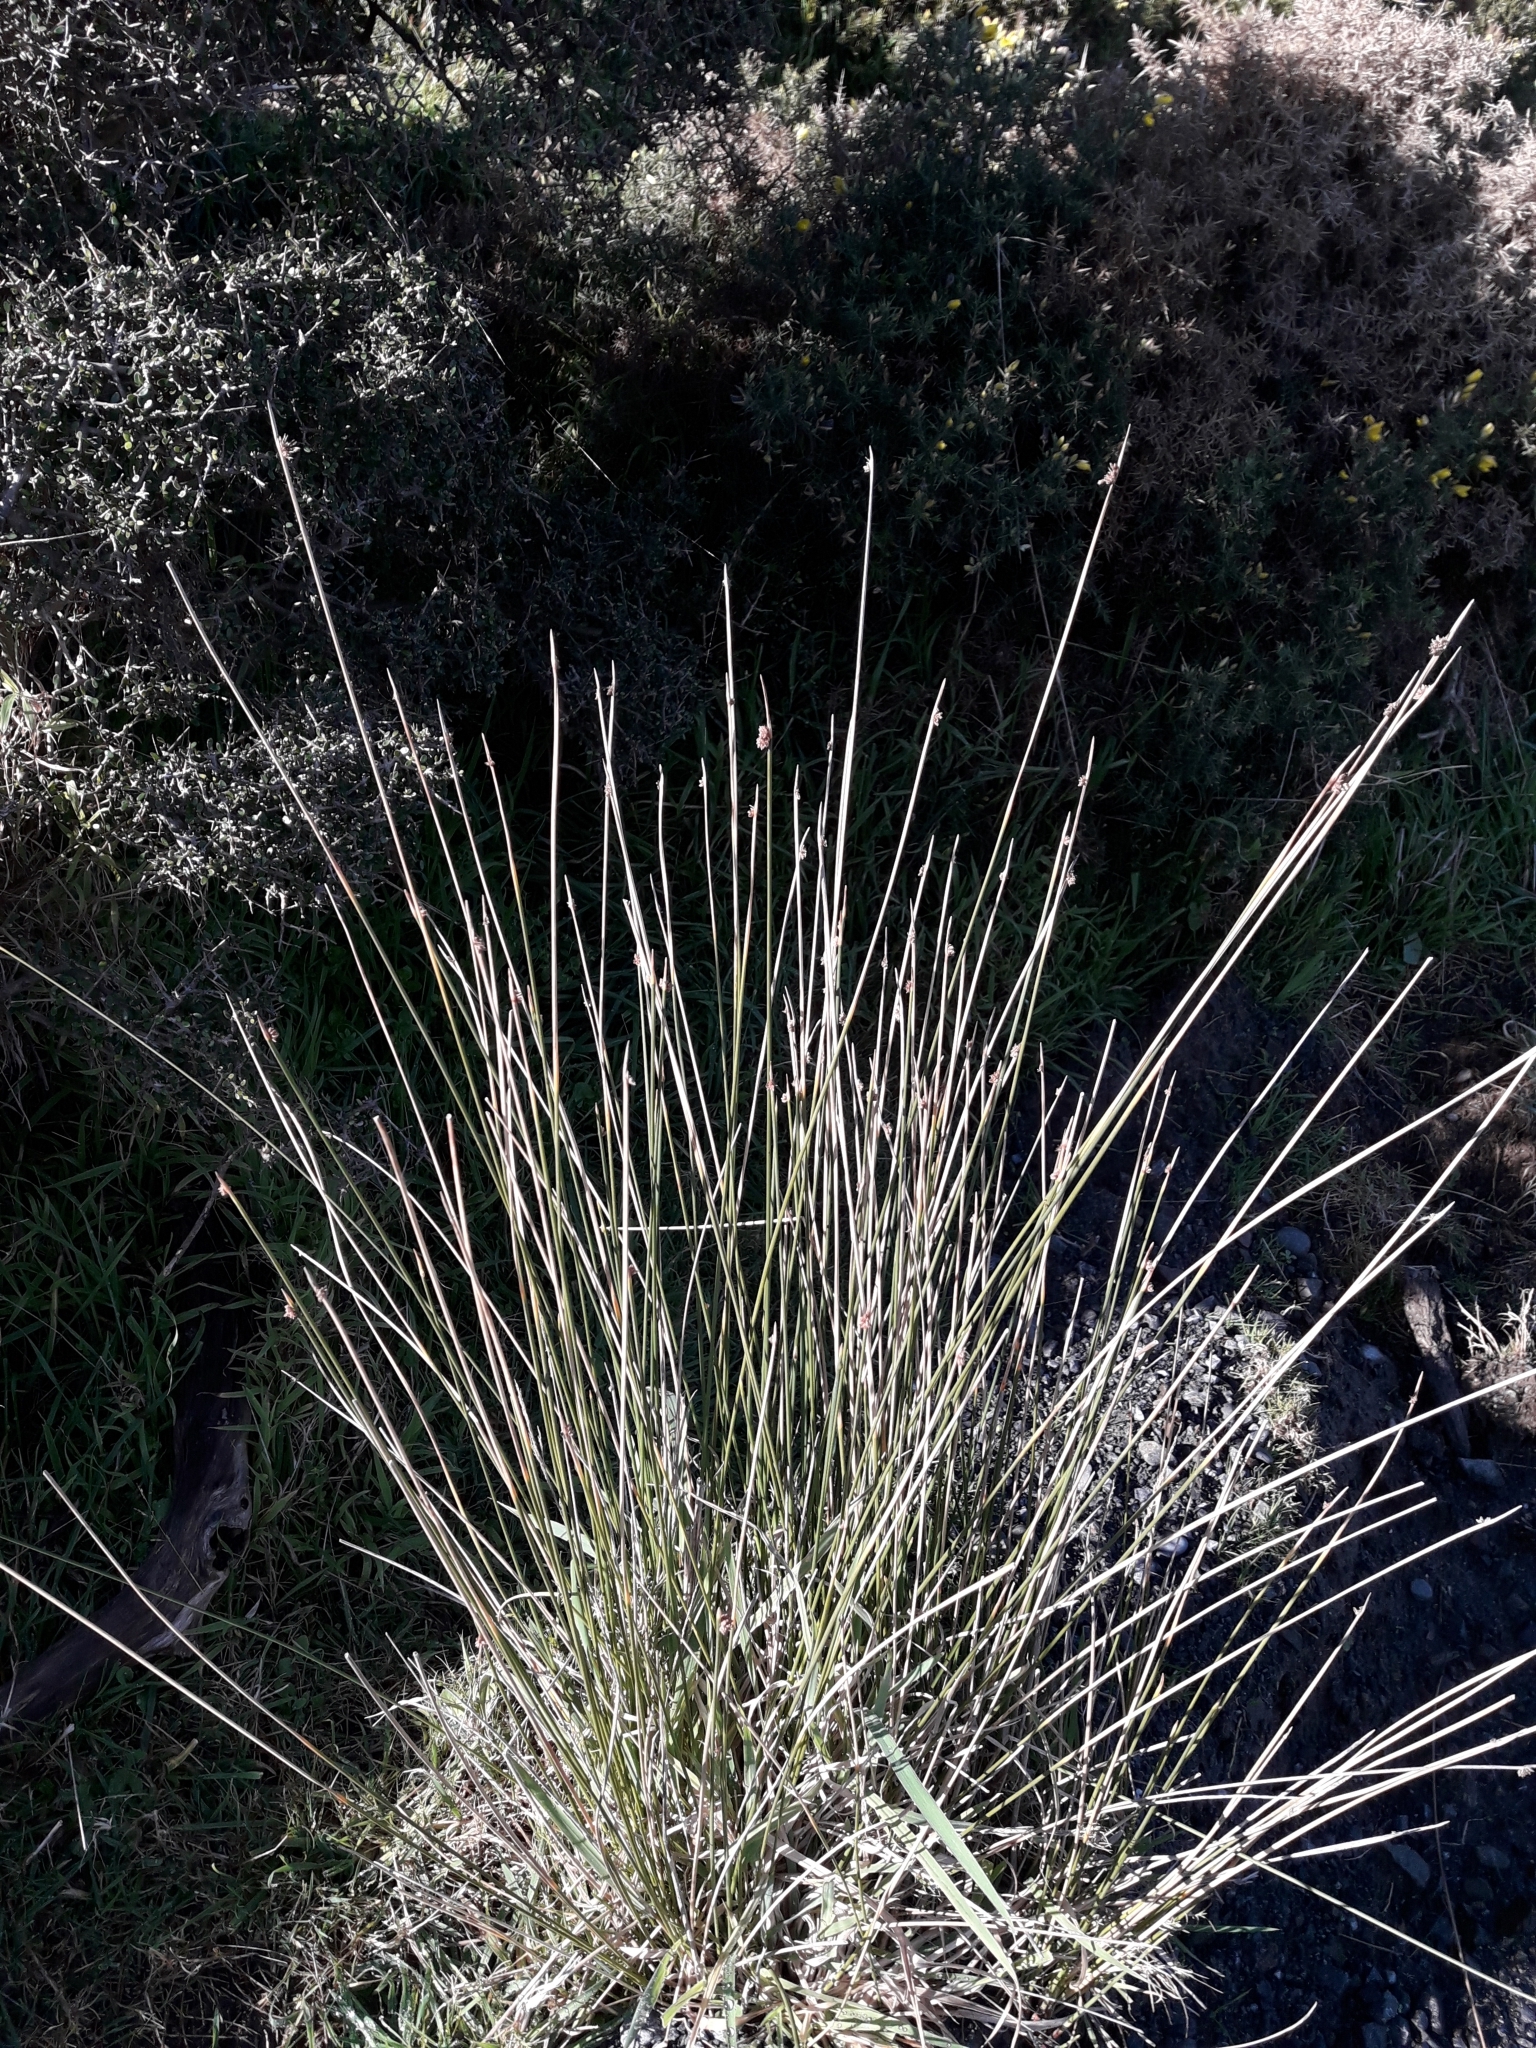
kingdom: Plantae
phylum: Tracheophyta
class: Liliopsida
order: Poales
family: Cyperaceae
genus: Ficinia
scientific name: Ficinia nodosa
